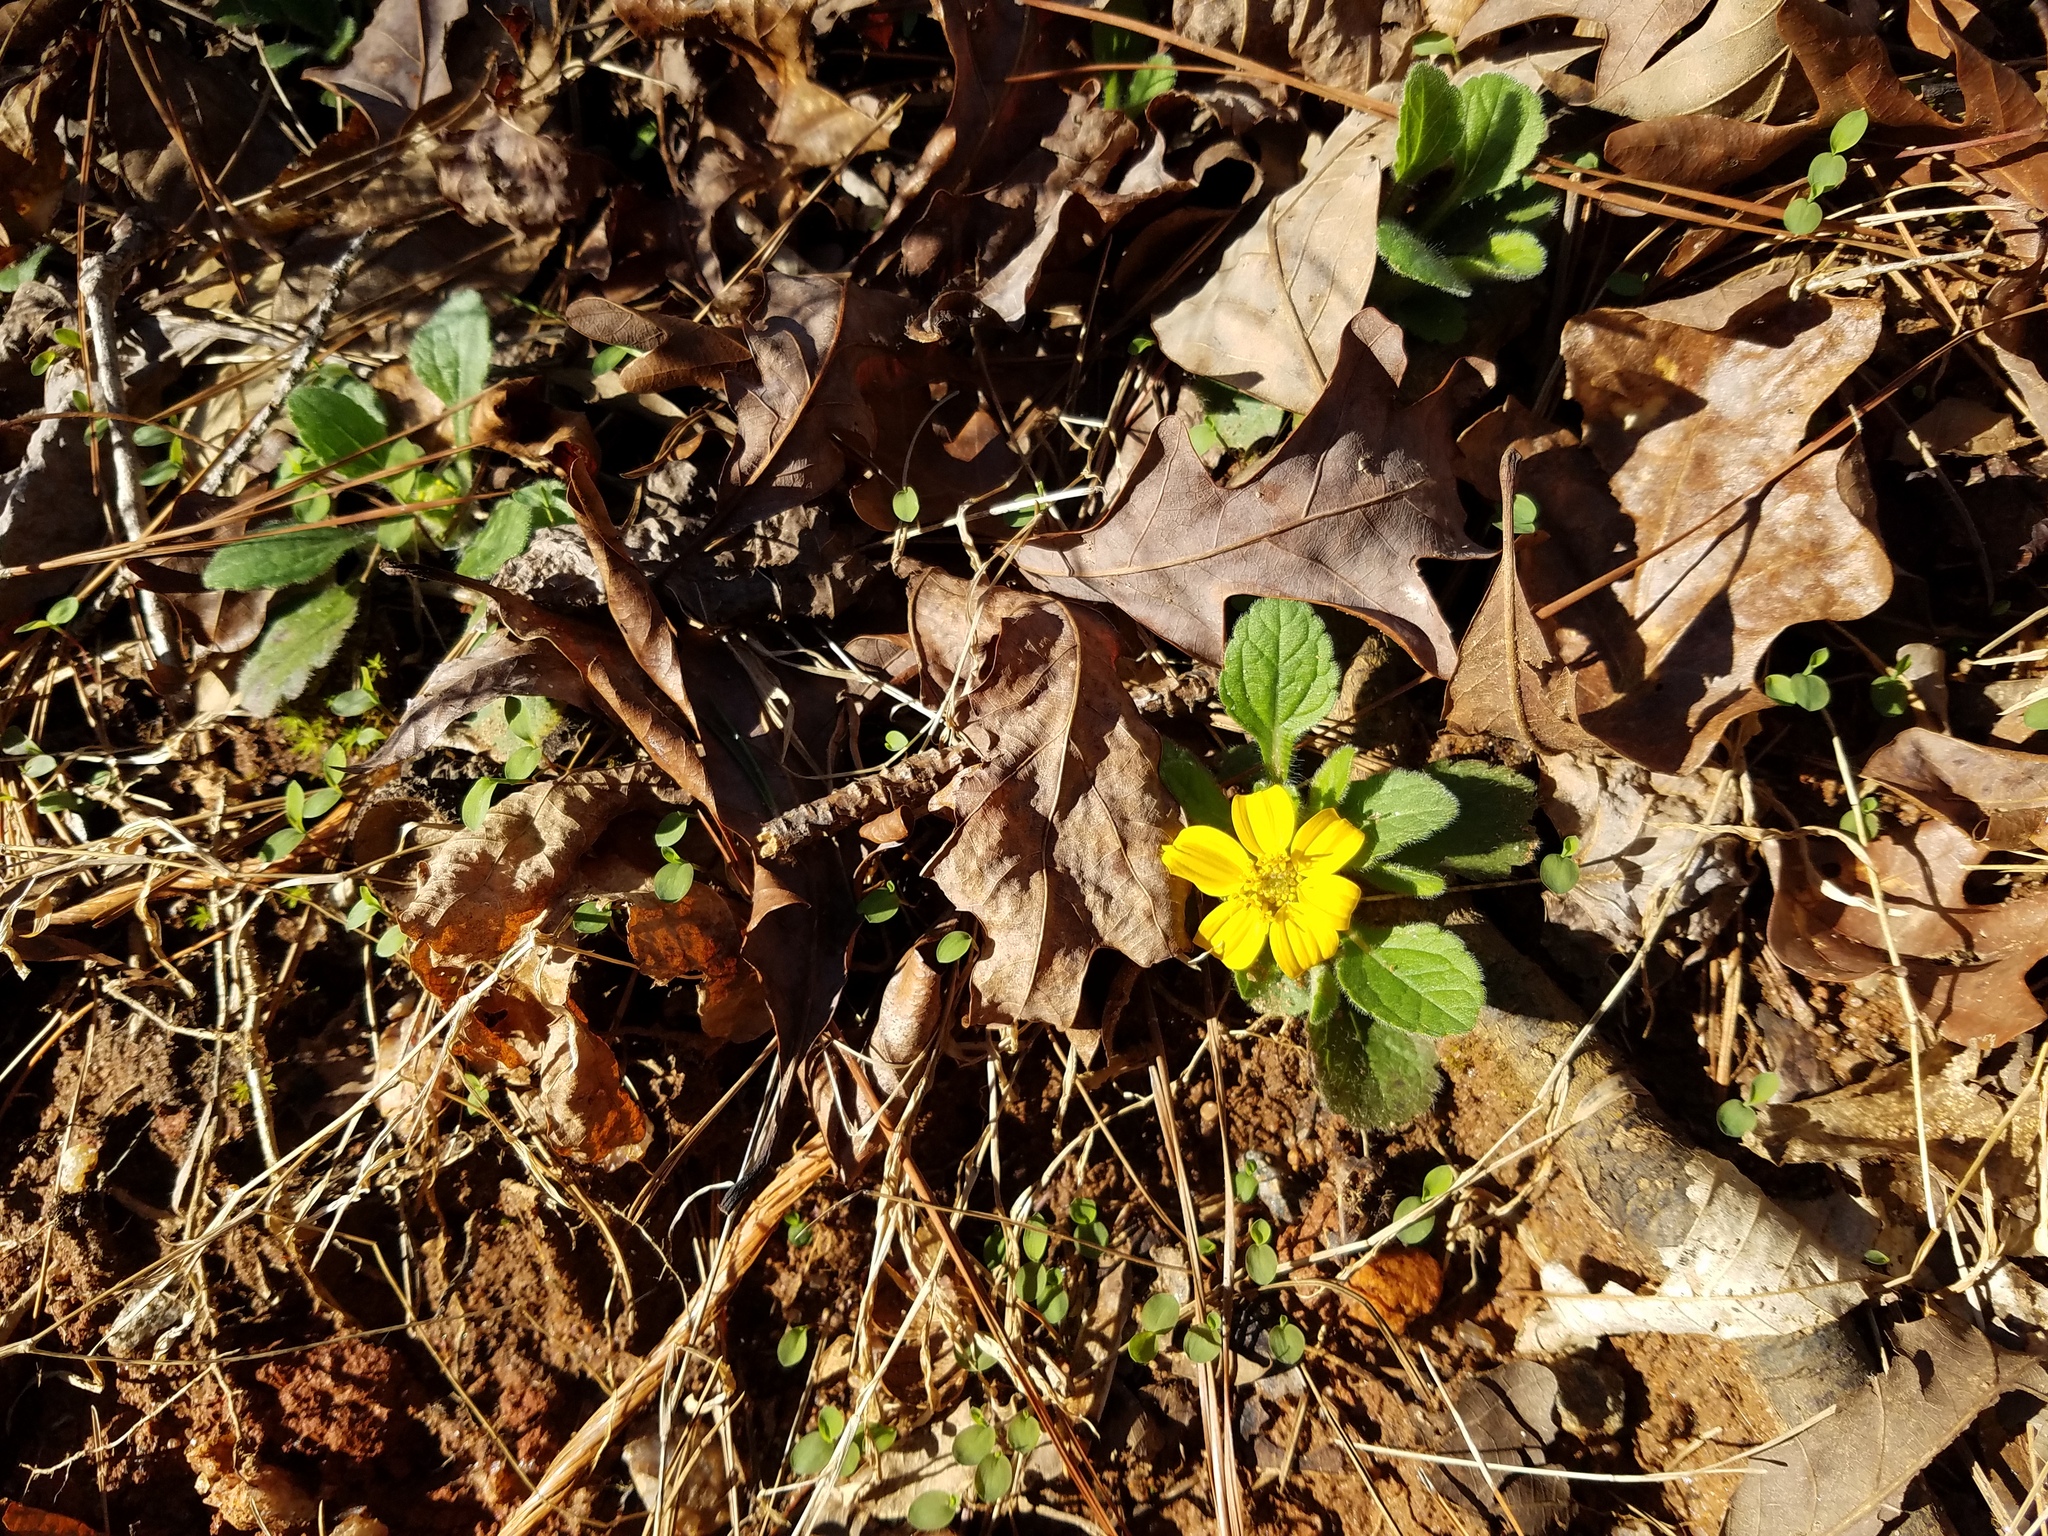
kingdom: Plantae
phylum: Tracheophyta
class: Magnoliopsida
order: Asterales
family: Asteraceae
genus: Chrysogonum
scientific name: Chrysogonum virginianum
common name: Golden-knee
